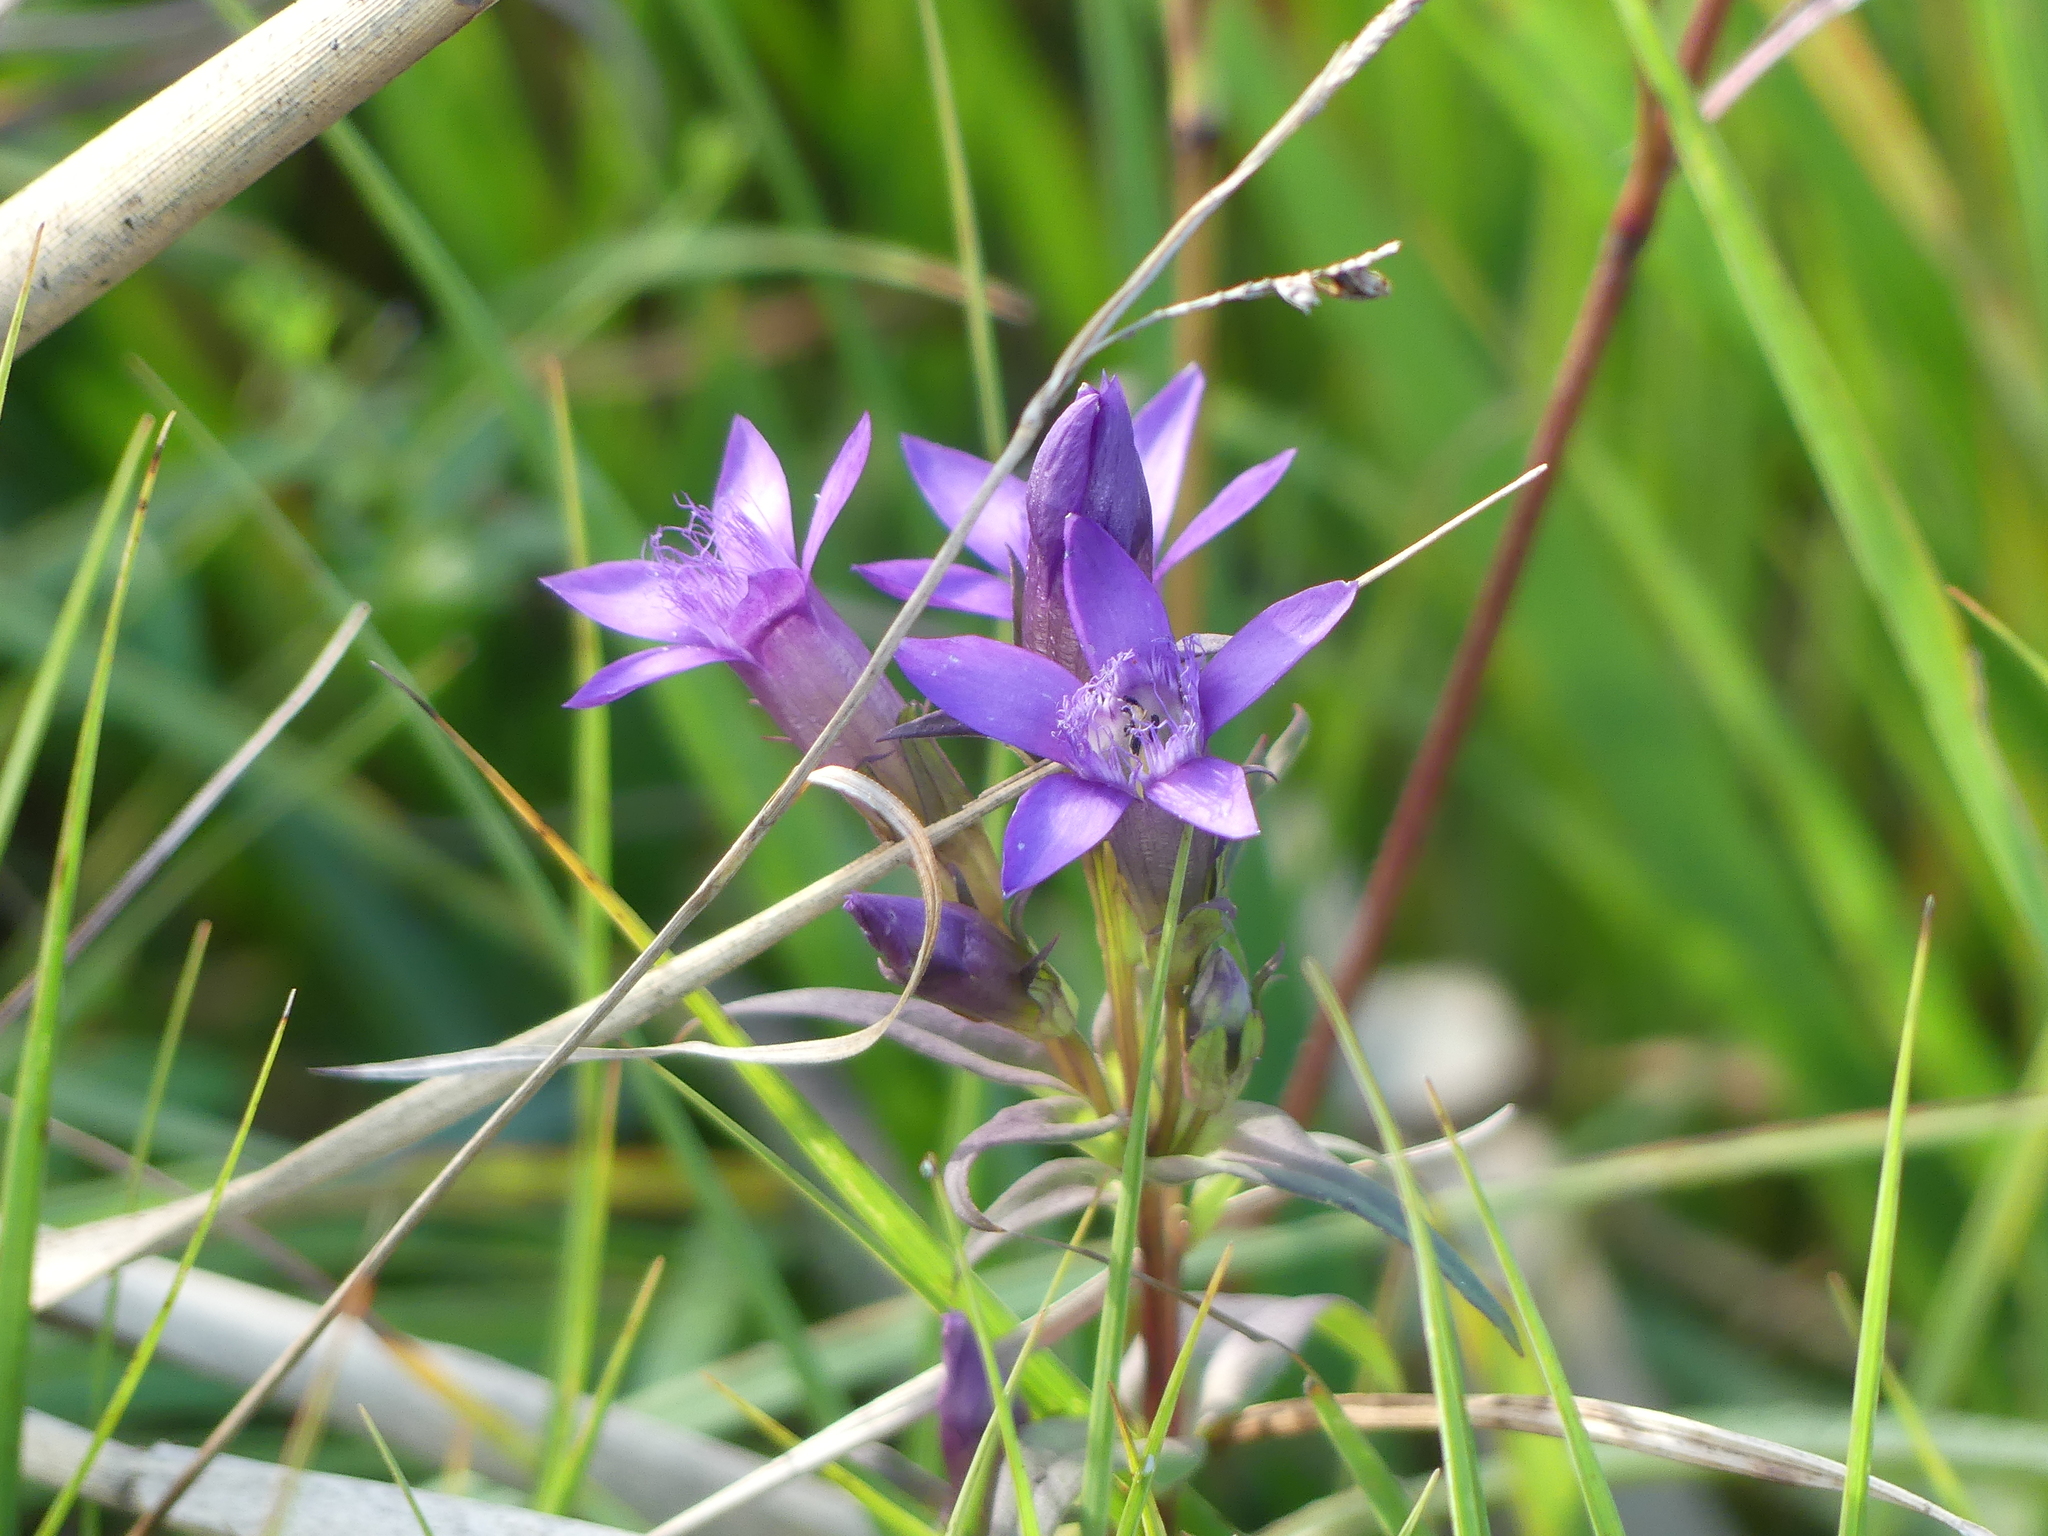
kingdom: Plantae
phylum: Tracheophyta
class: Magnoliopsida
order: Gentianales
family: Gentianaceae
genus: Gentianella
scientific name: Gentianella germanica
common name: Chiltern-gentian
